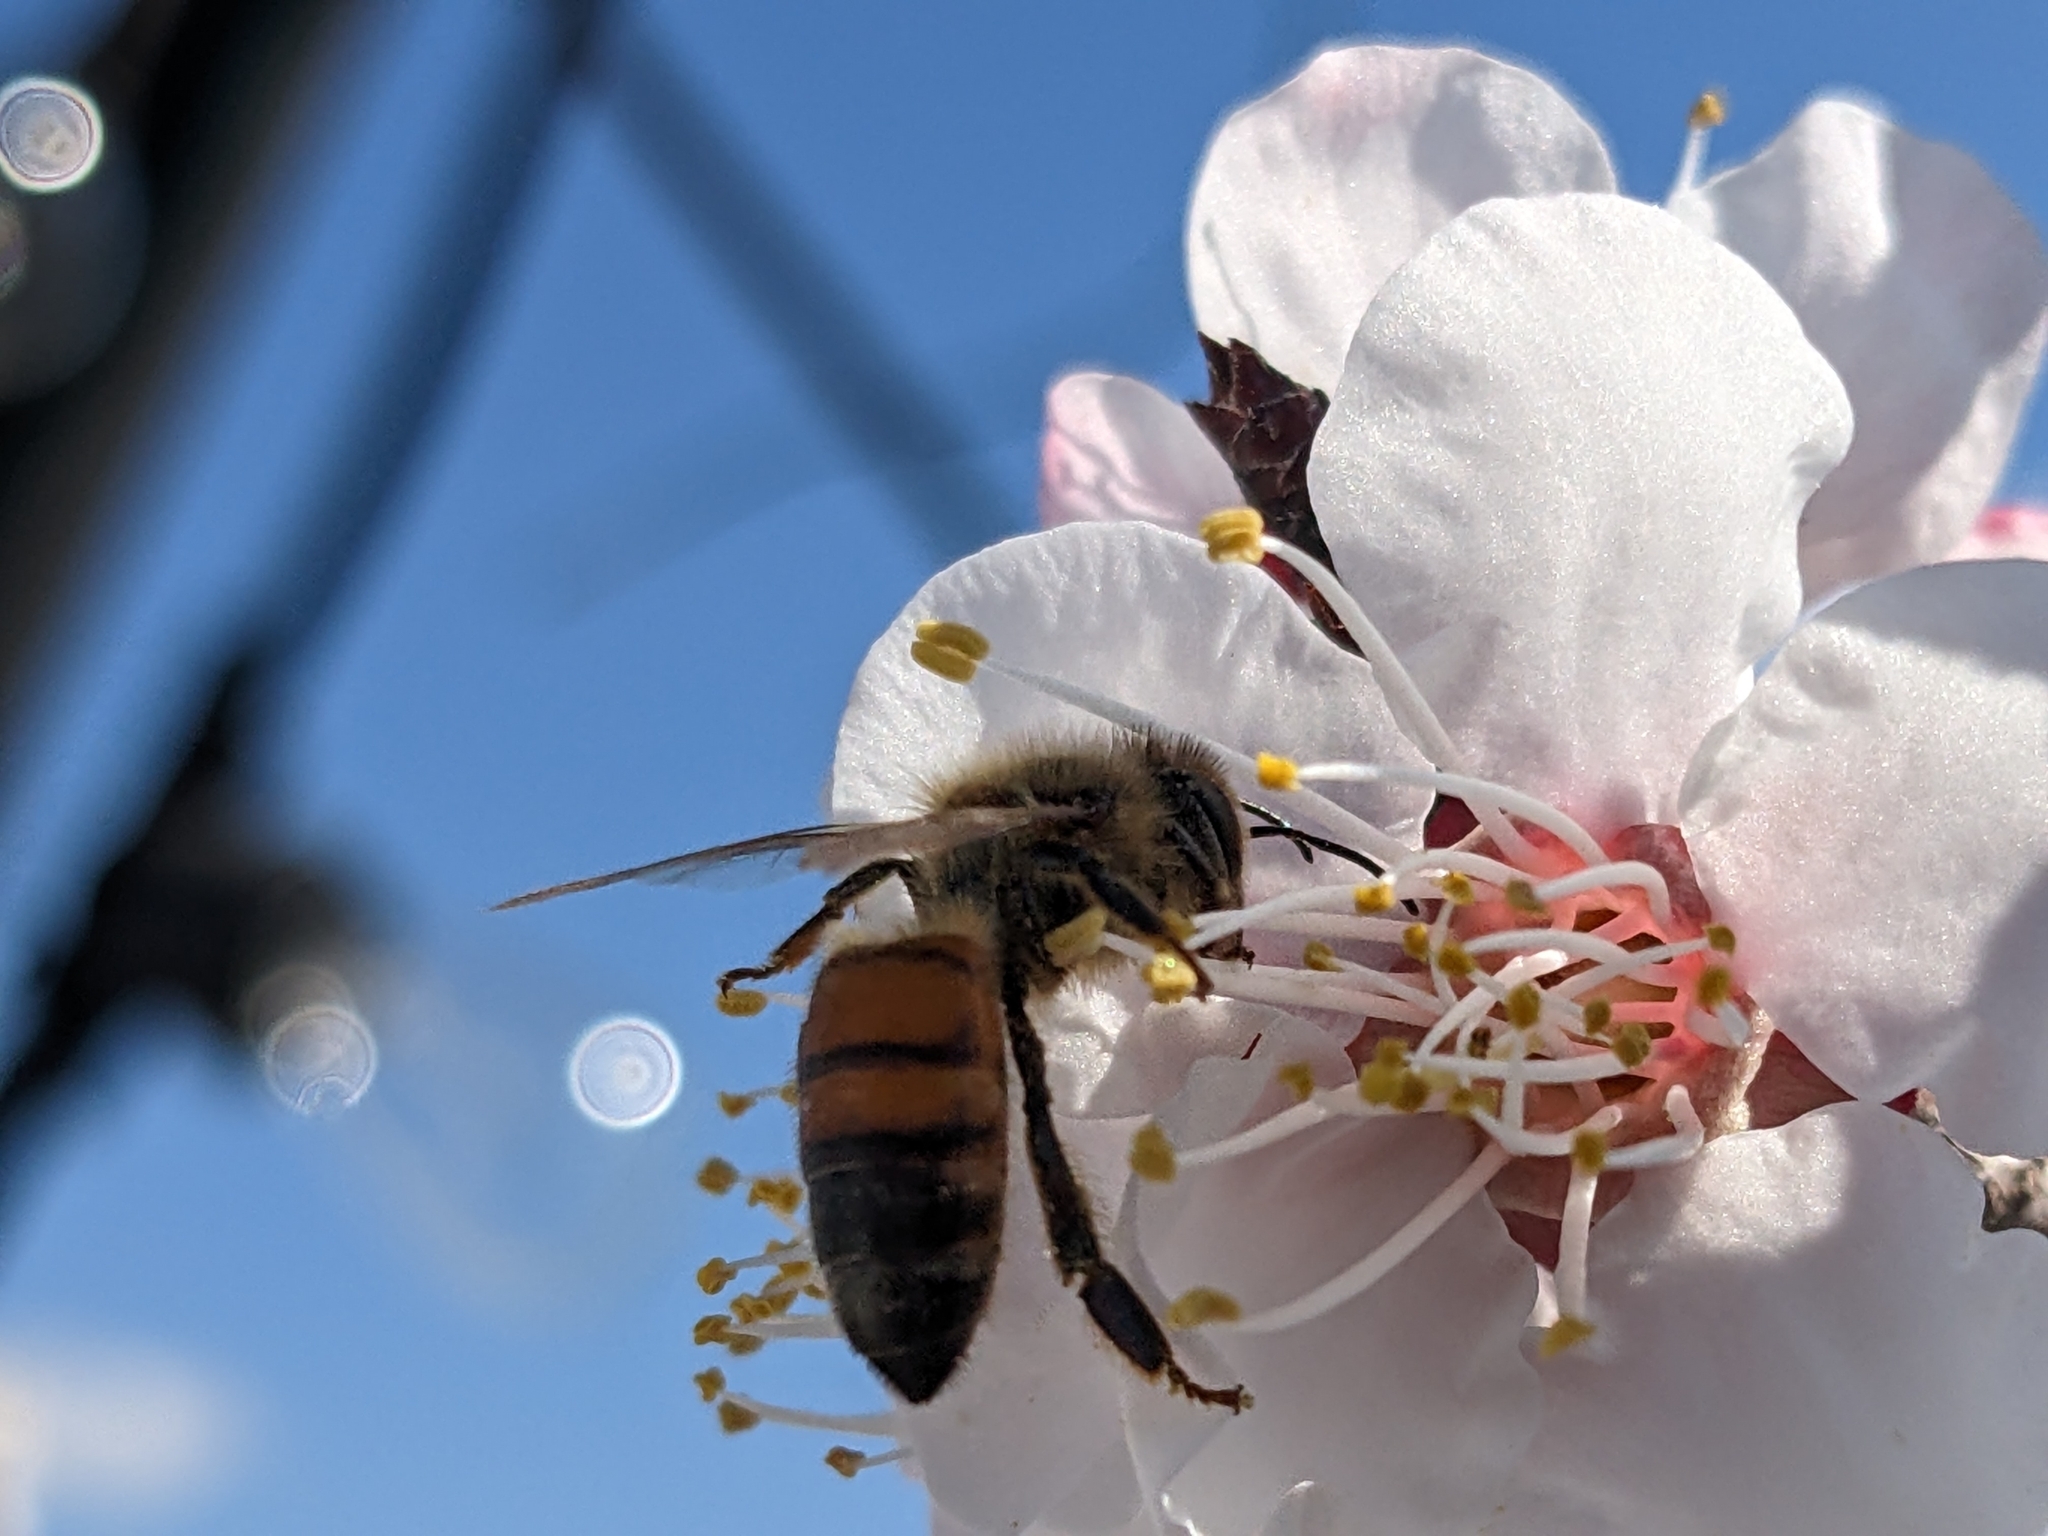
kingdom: Animalia
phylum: Arthropoda
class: Insecta
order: Hymenoptera
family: Apidae
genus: Apis
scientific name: Apis mellifera
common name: Honey bee
